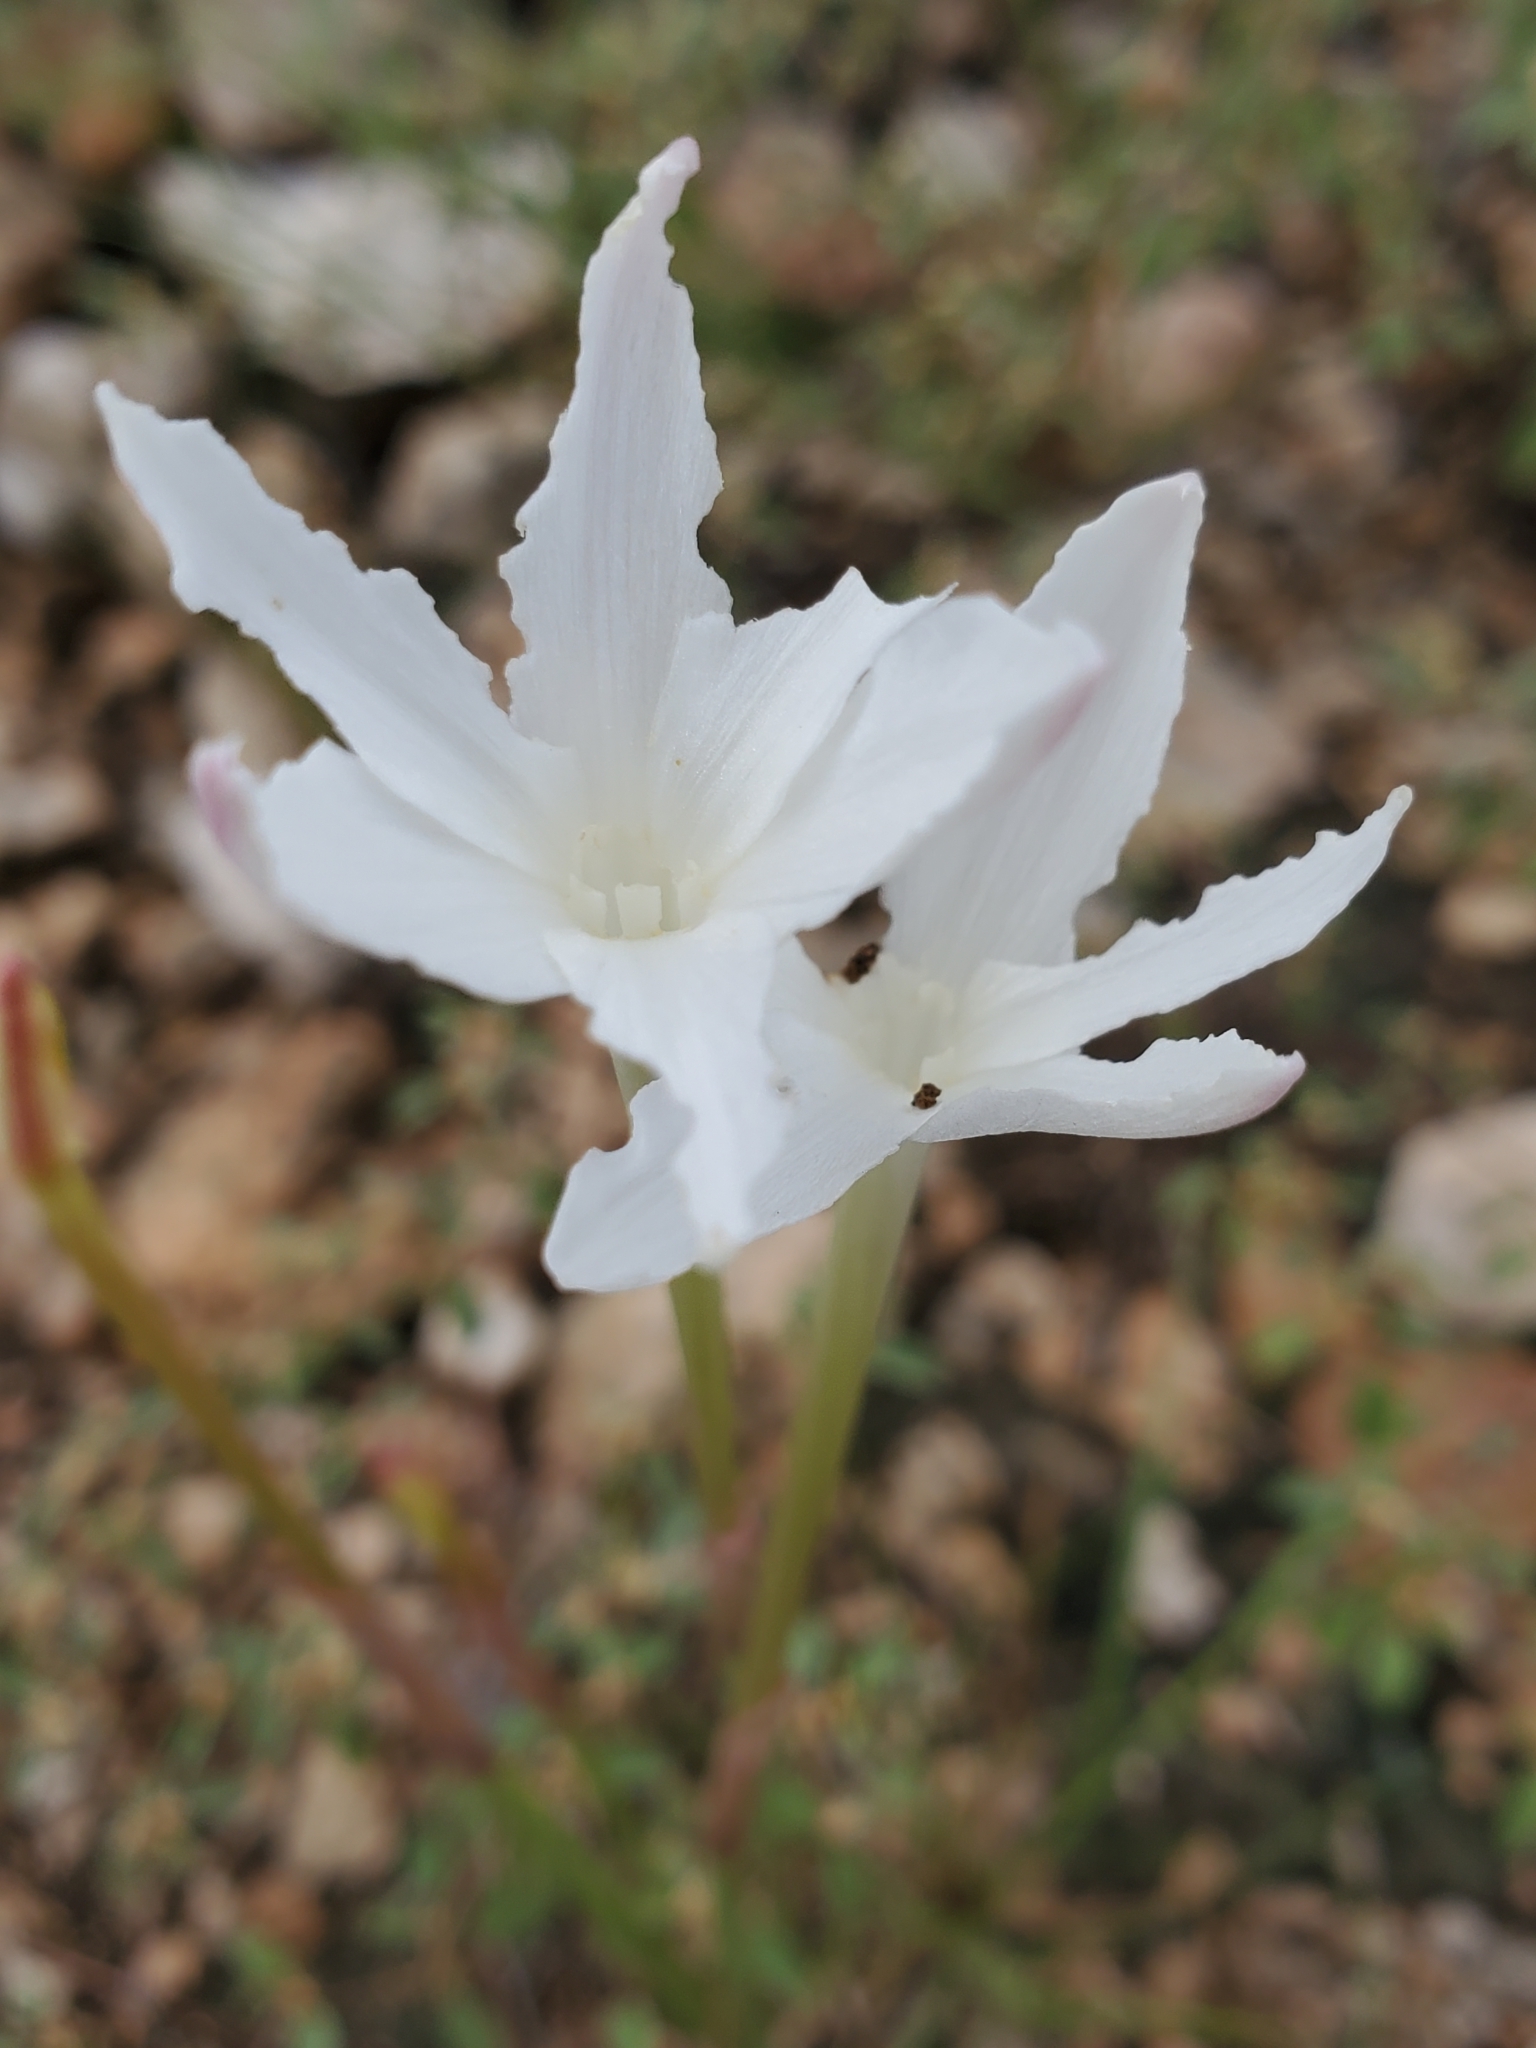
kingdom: Plantae
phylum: Tracheophyta
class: Liliopsida
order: Asparagales
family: Amaryllidaceae
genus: Zephyranthes
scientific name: Zephyranthes chlorosolen
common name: Evening rain-lily
